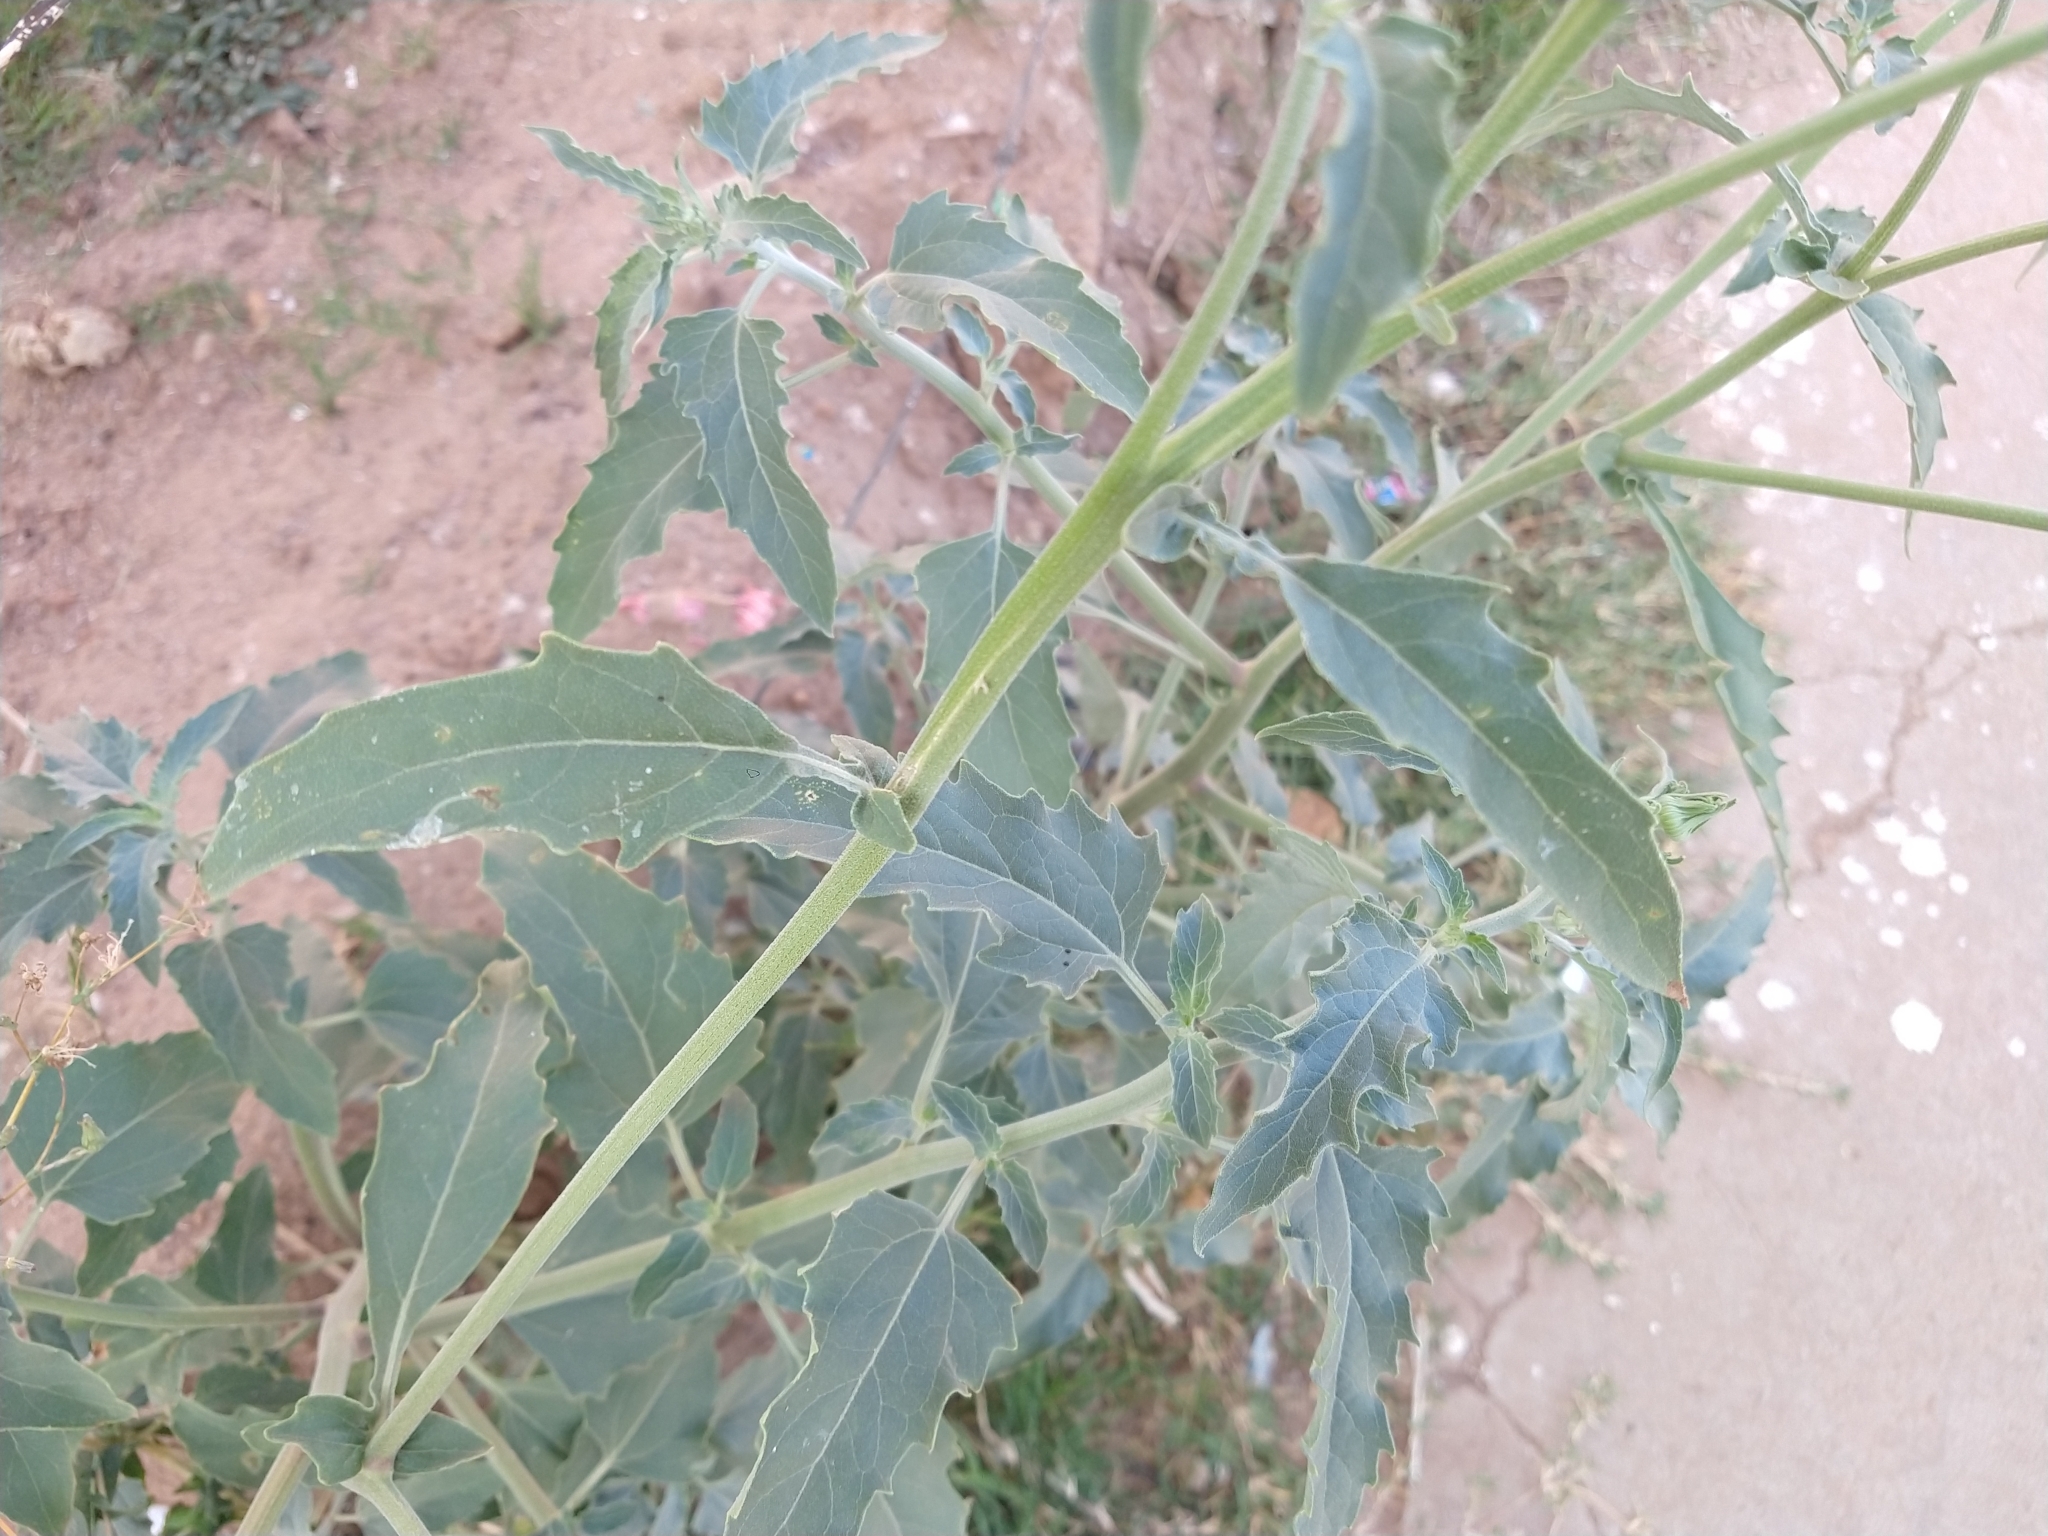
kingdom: Plantae
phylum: Tracheophyta
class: Magnoliopsida
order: Asterales
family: Asteraceae
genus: Verbesina
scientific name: Verbesina encelioides
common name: Golden crownbeard
